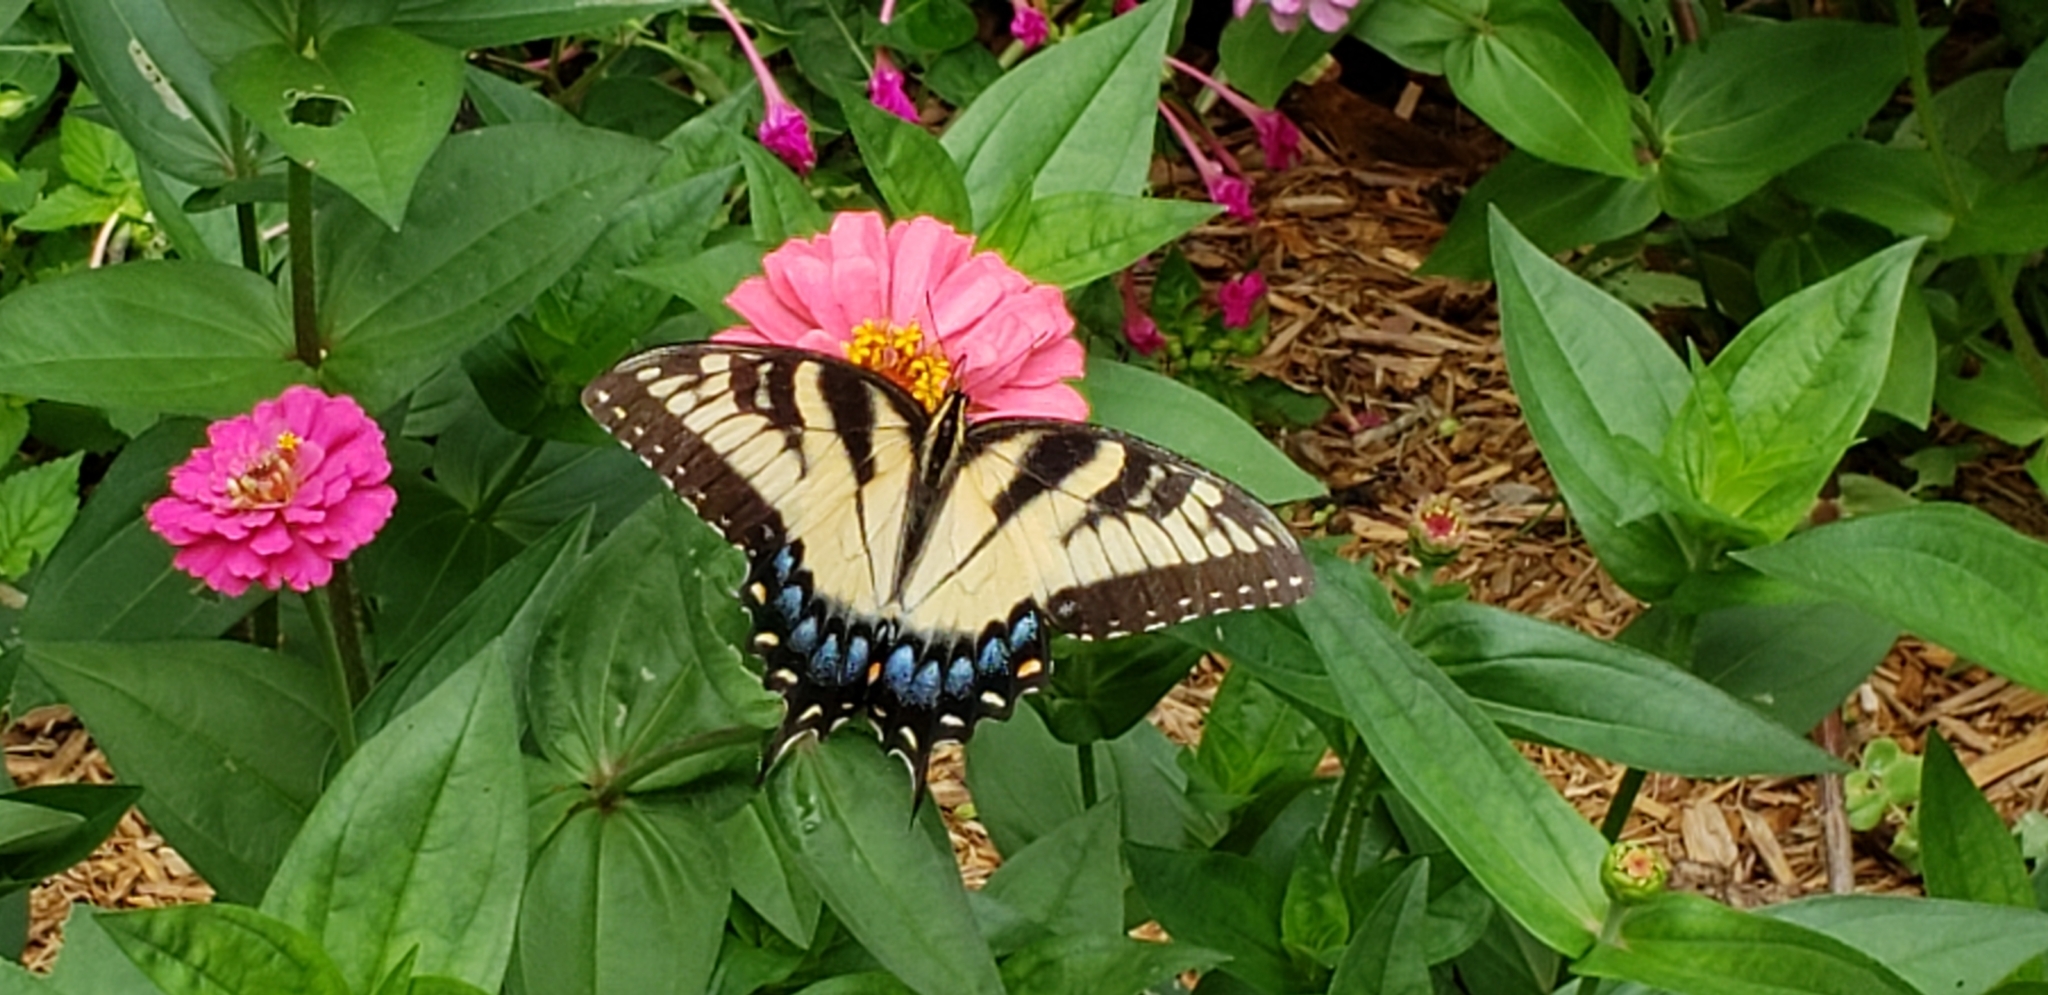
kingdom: Animalia
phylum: Arthropoda
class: Insecta
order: Lepidoptera
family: Papilionidae
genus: Papilio
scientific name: Papilio glaucus
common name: Tiger swallowtail
